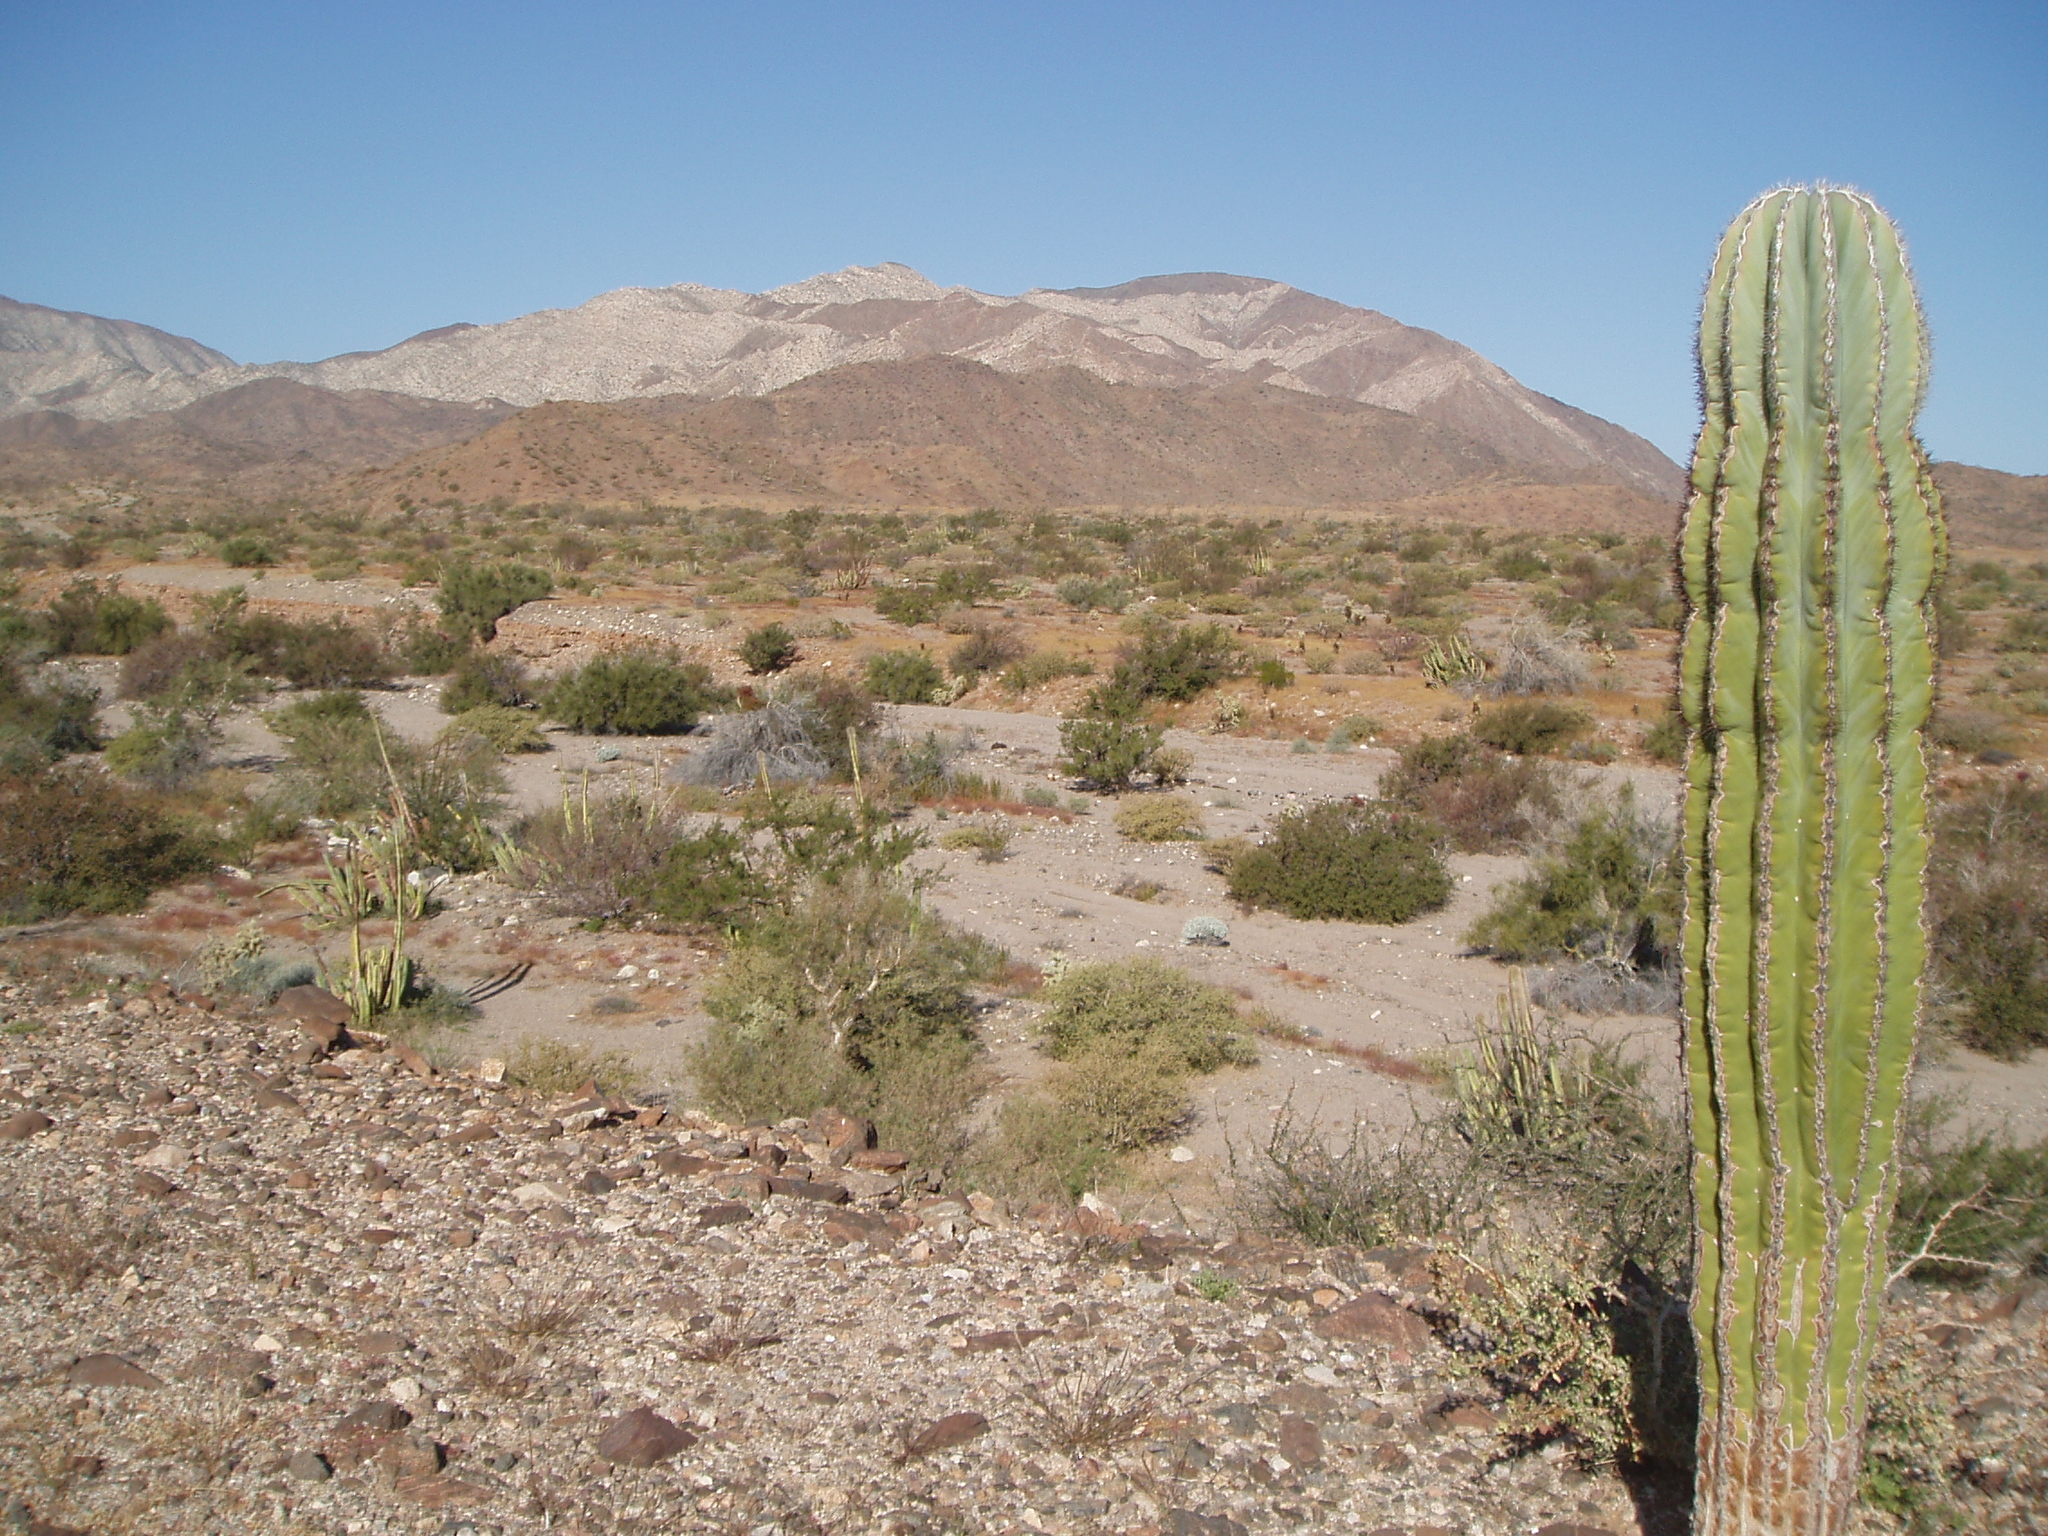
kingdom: Plantae
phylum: Tracheophyta
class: Magnoliopsida
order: Caryophyllales
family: Cactaceae
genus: Pachycereus
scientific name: Pachycereus pringlei
